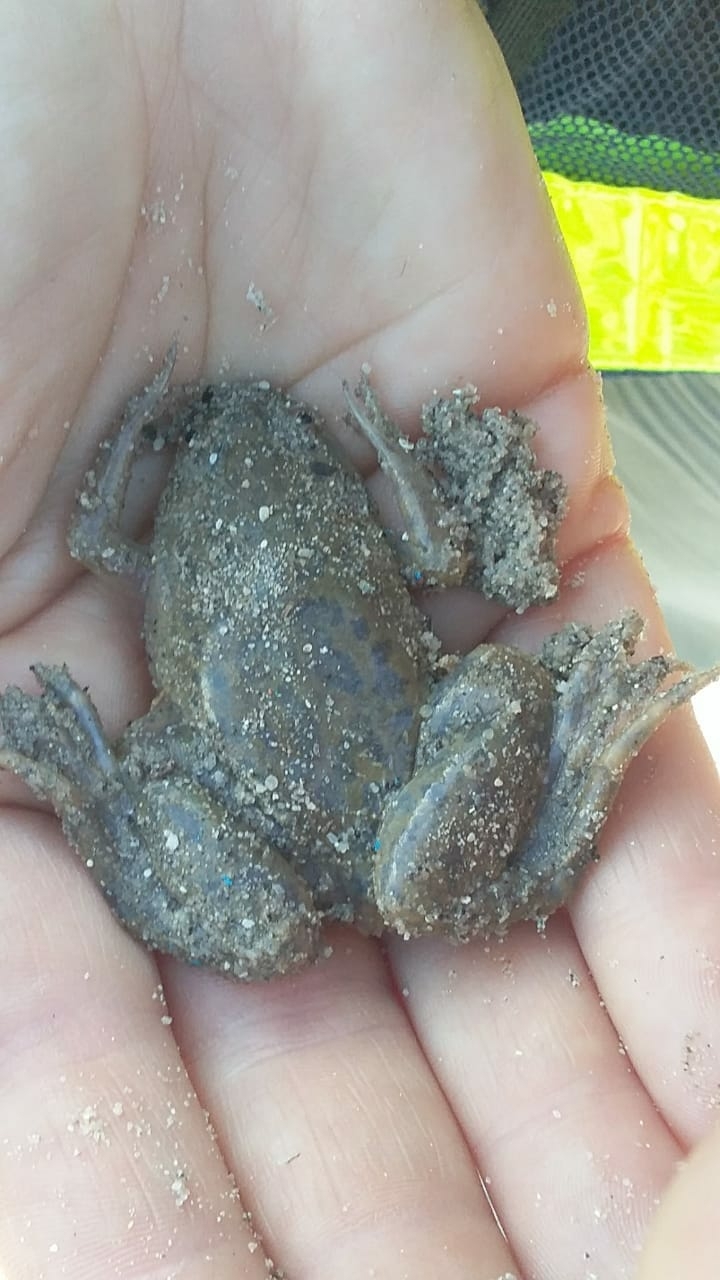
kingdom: Animalia
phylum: Chordata
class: Amphibia
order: Anura
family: Pipidae
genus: Xenopus
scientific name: Xenopus laevis
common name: African clawed frog
